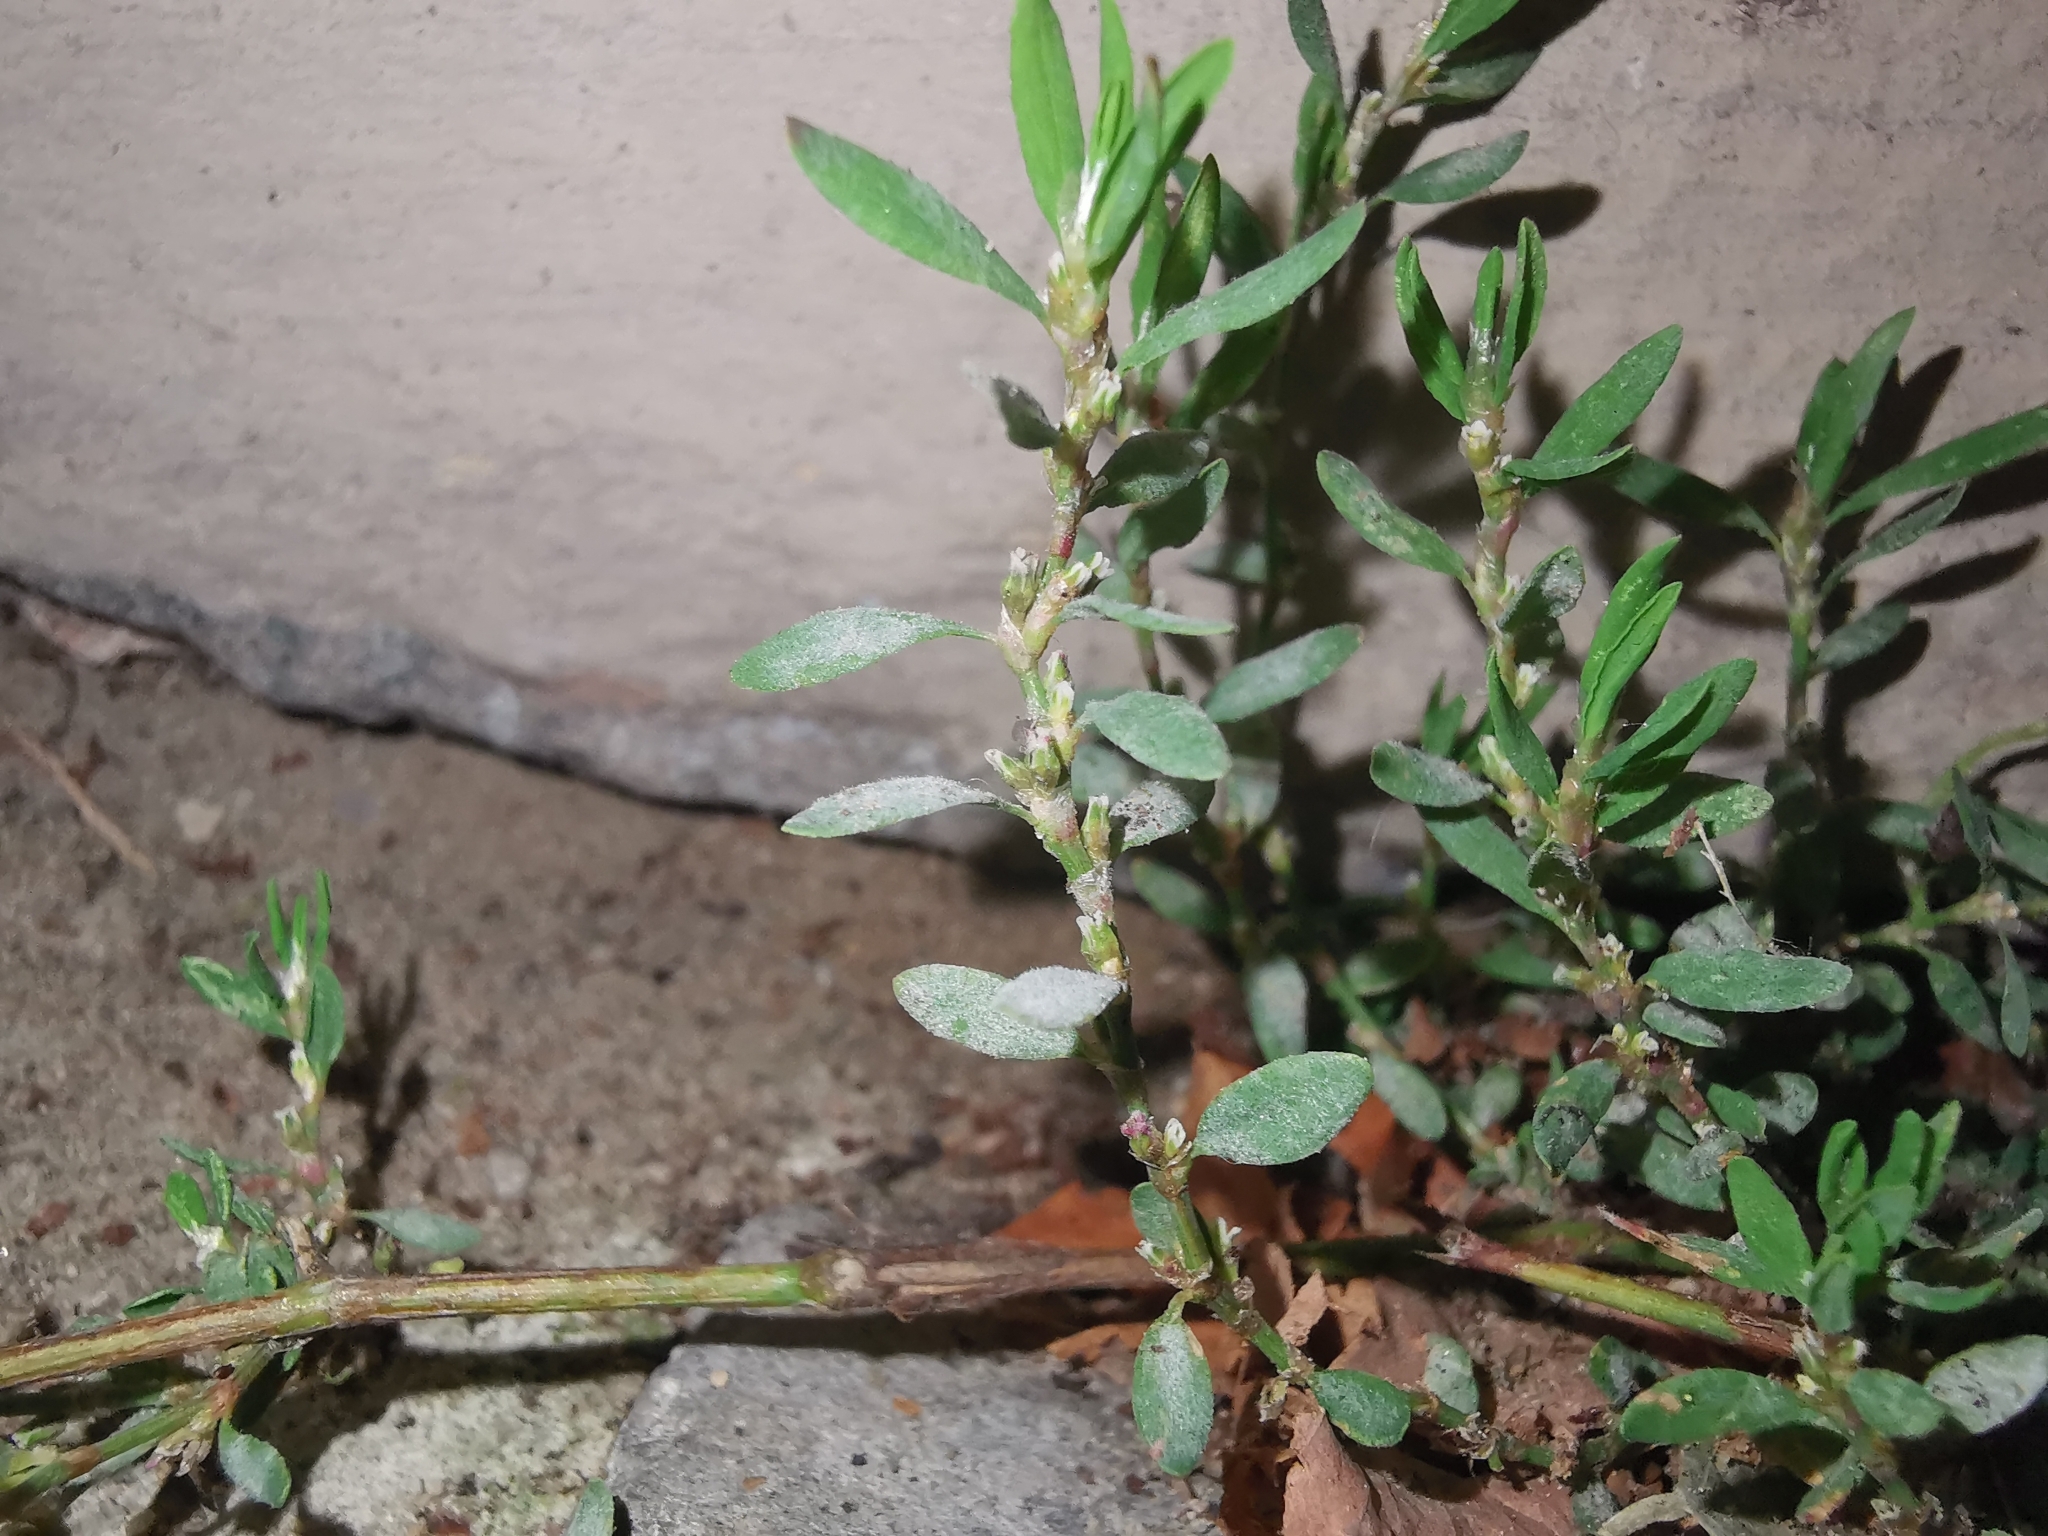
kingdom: Fungi
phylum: Ascomycota
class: Leotiomycetes
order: Helotiales
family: Erysiphaceae
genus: Erysiphe
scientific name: Erysiphe polygoni
